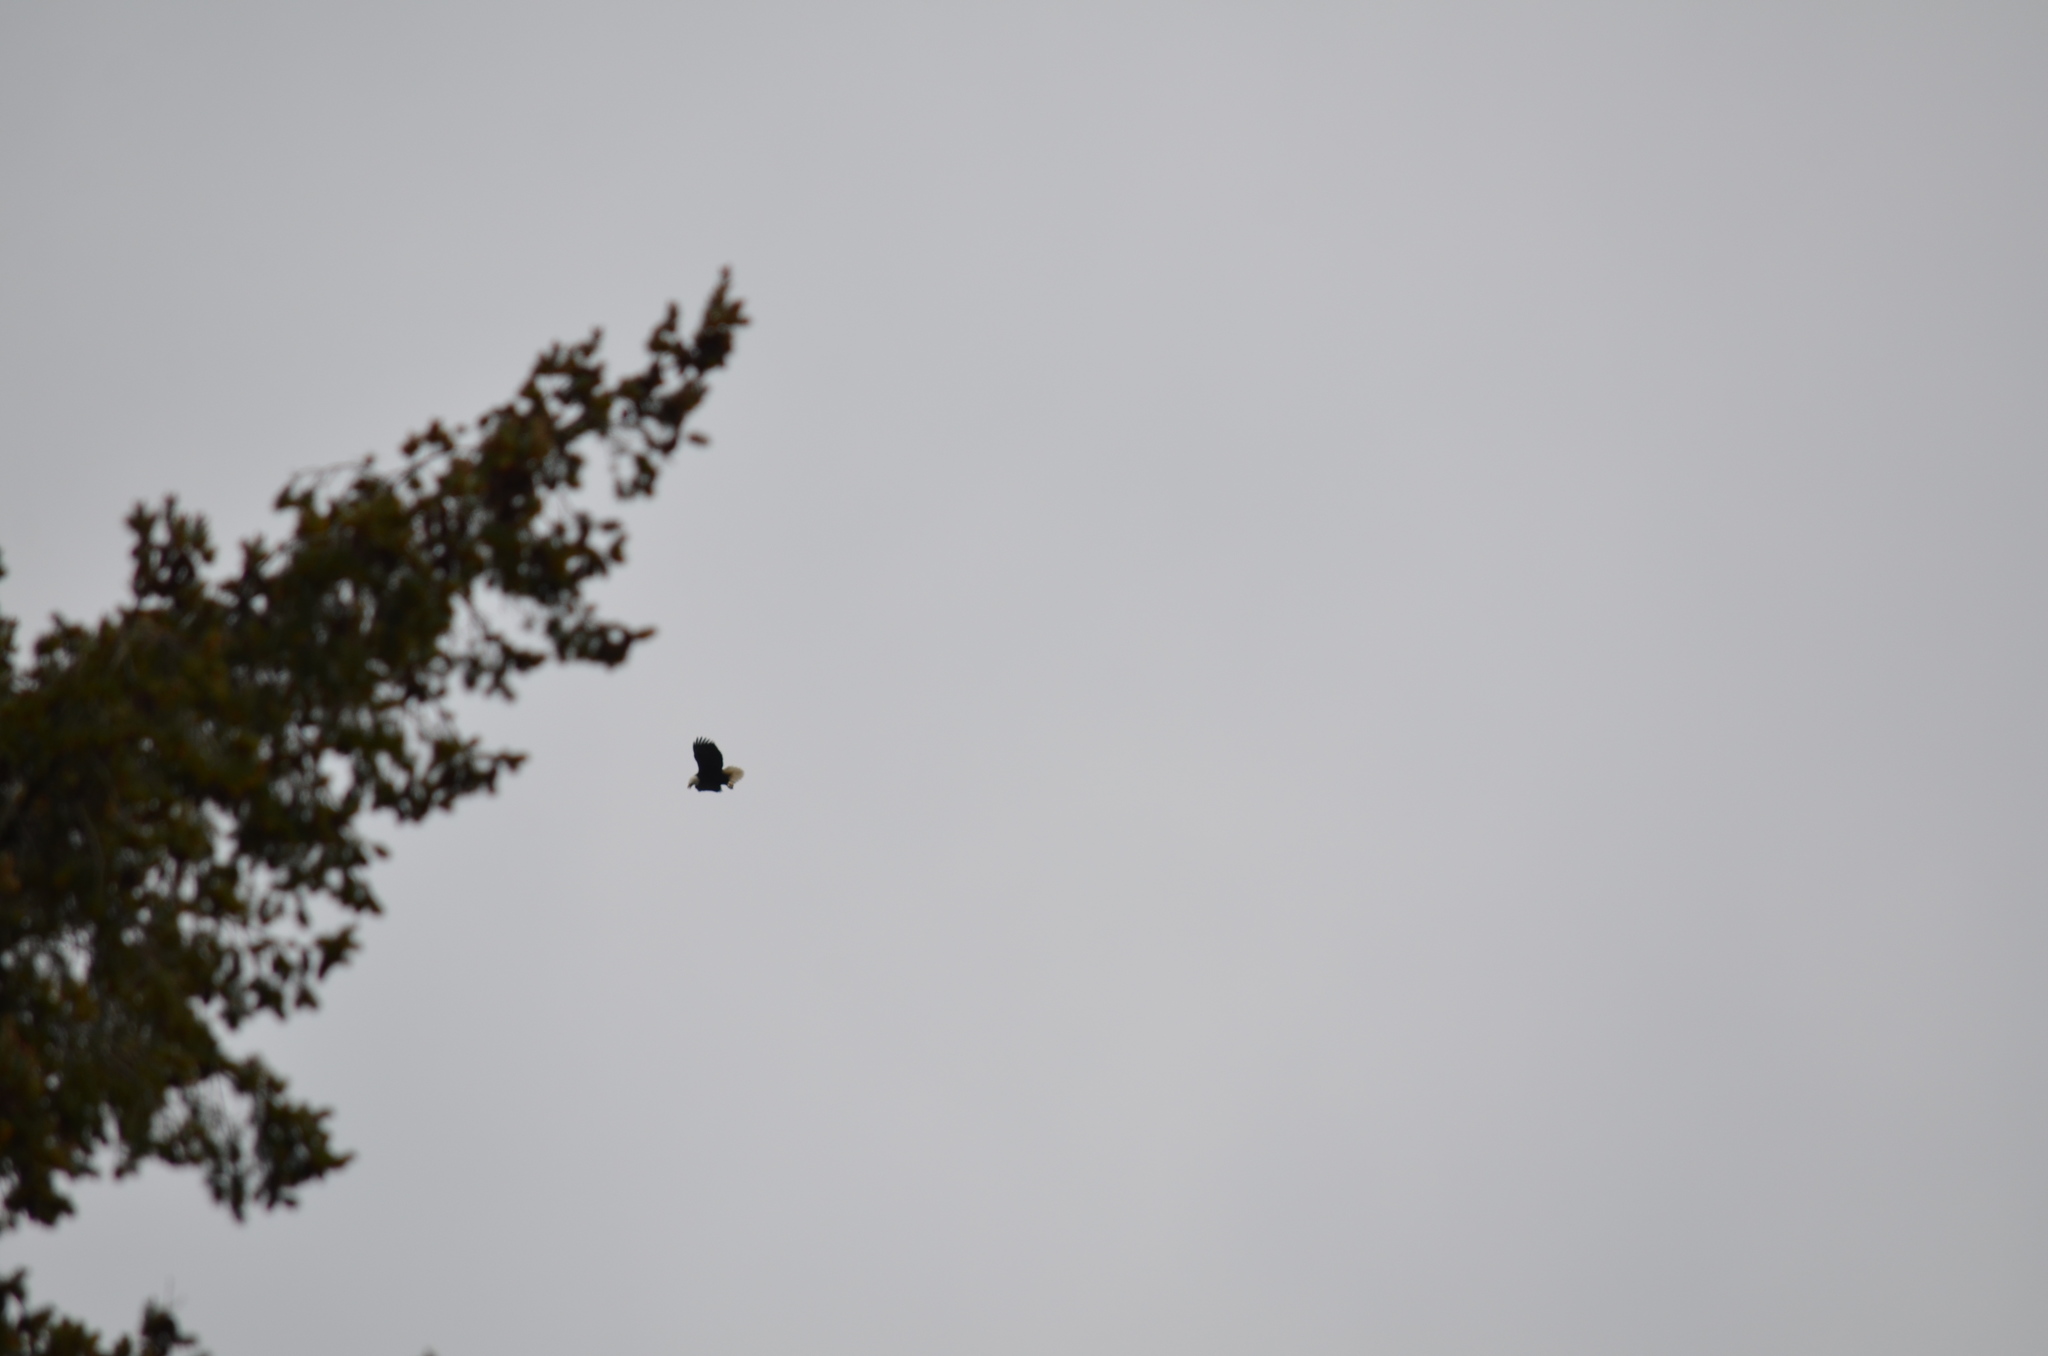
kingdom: Animalia
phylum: Chordata
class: Aves
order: Accipitriformes
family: Accipitridae
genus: Haliaeetus
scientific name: Haliaeetus leucocephalus
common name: Bald eagle
